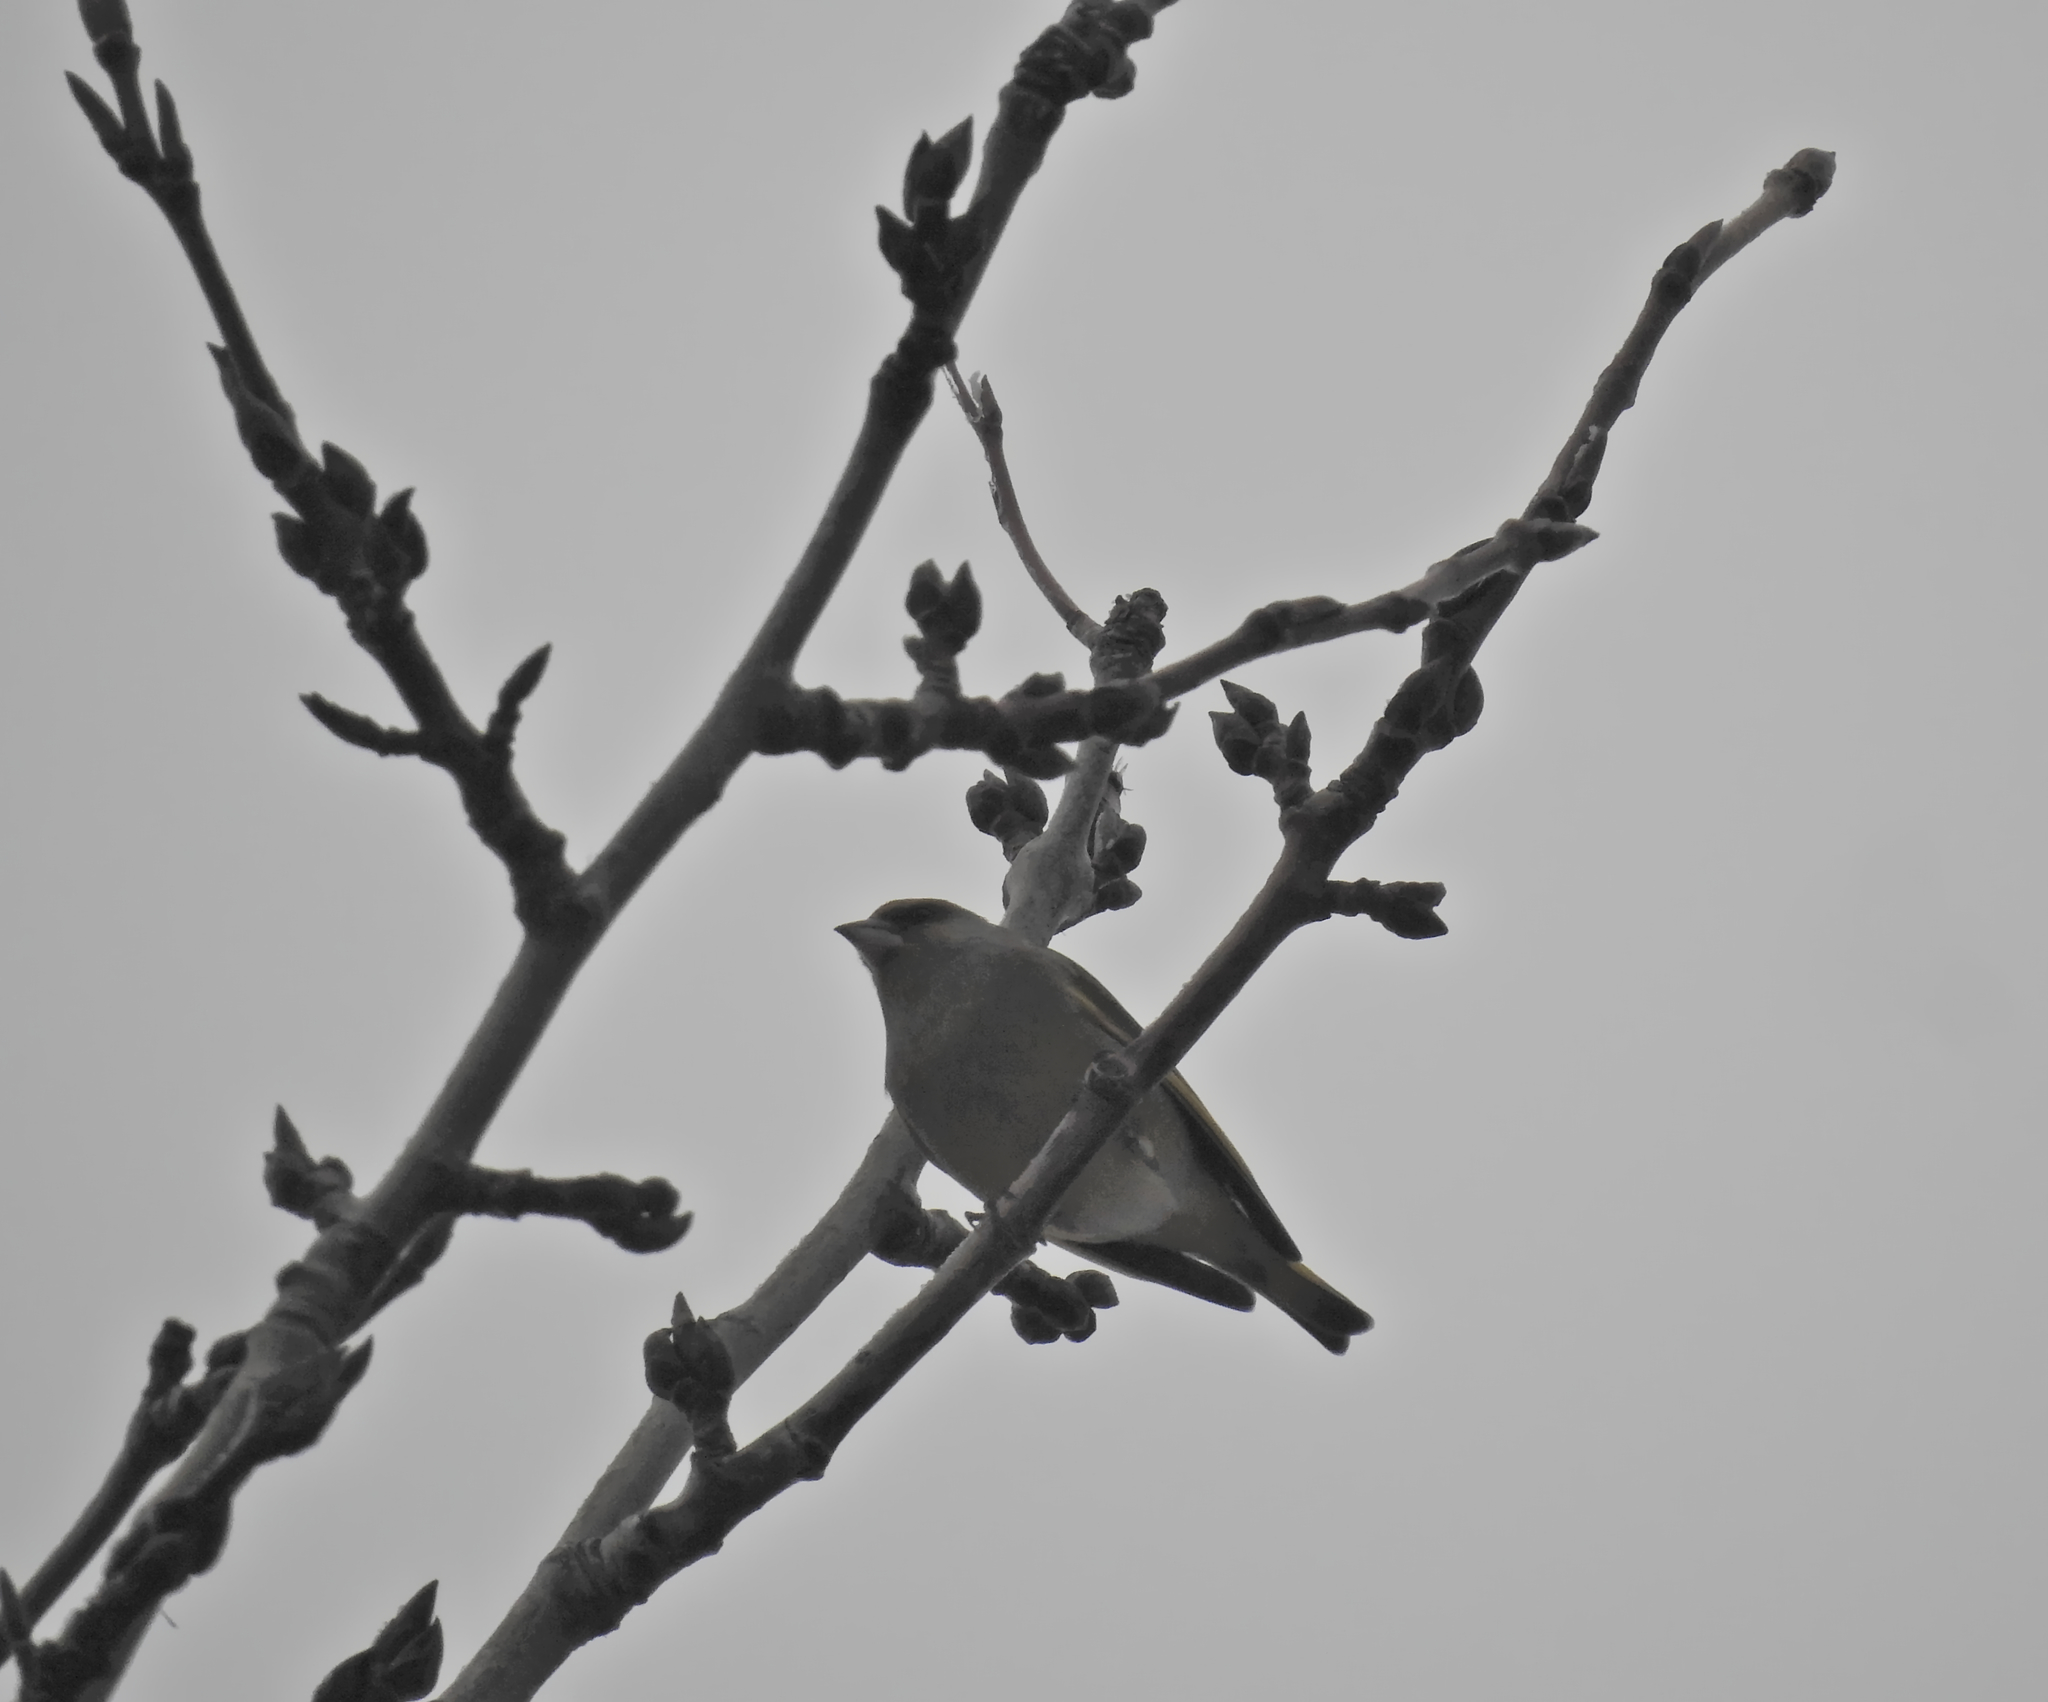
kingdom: Plantae
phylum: Tracheophyta
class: Liliopsida
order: Poales
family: Poaceae
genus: Chloris
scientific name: Chloris chloris
